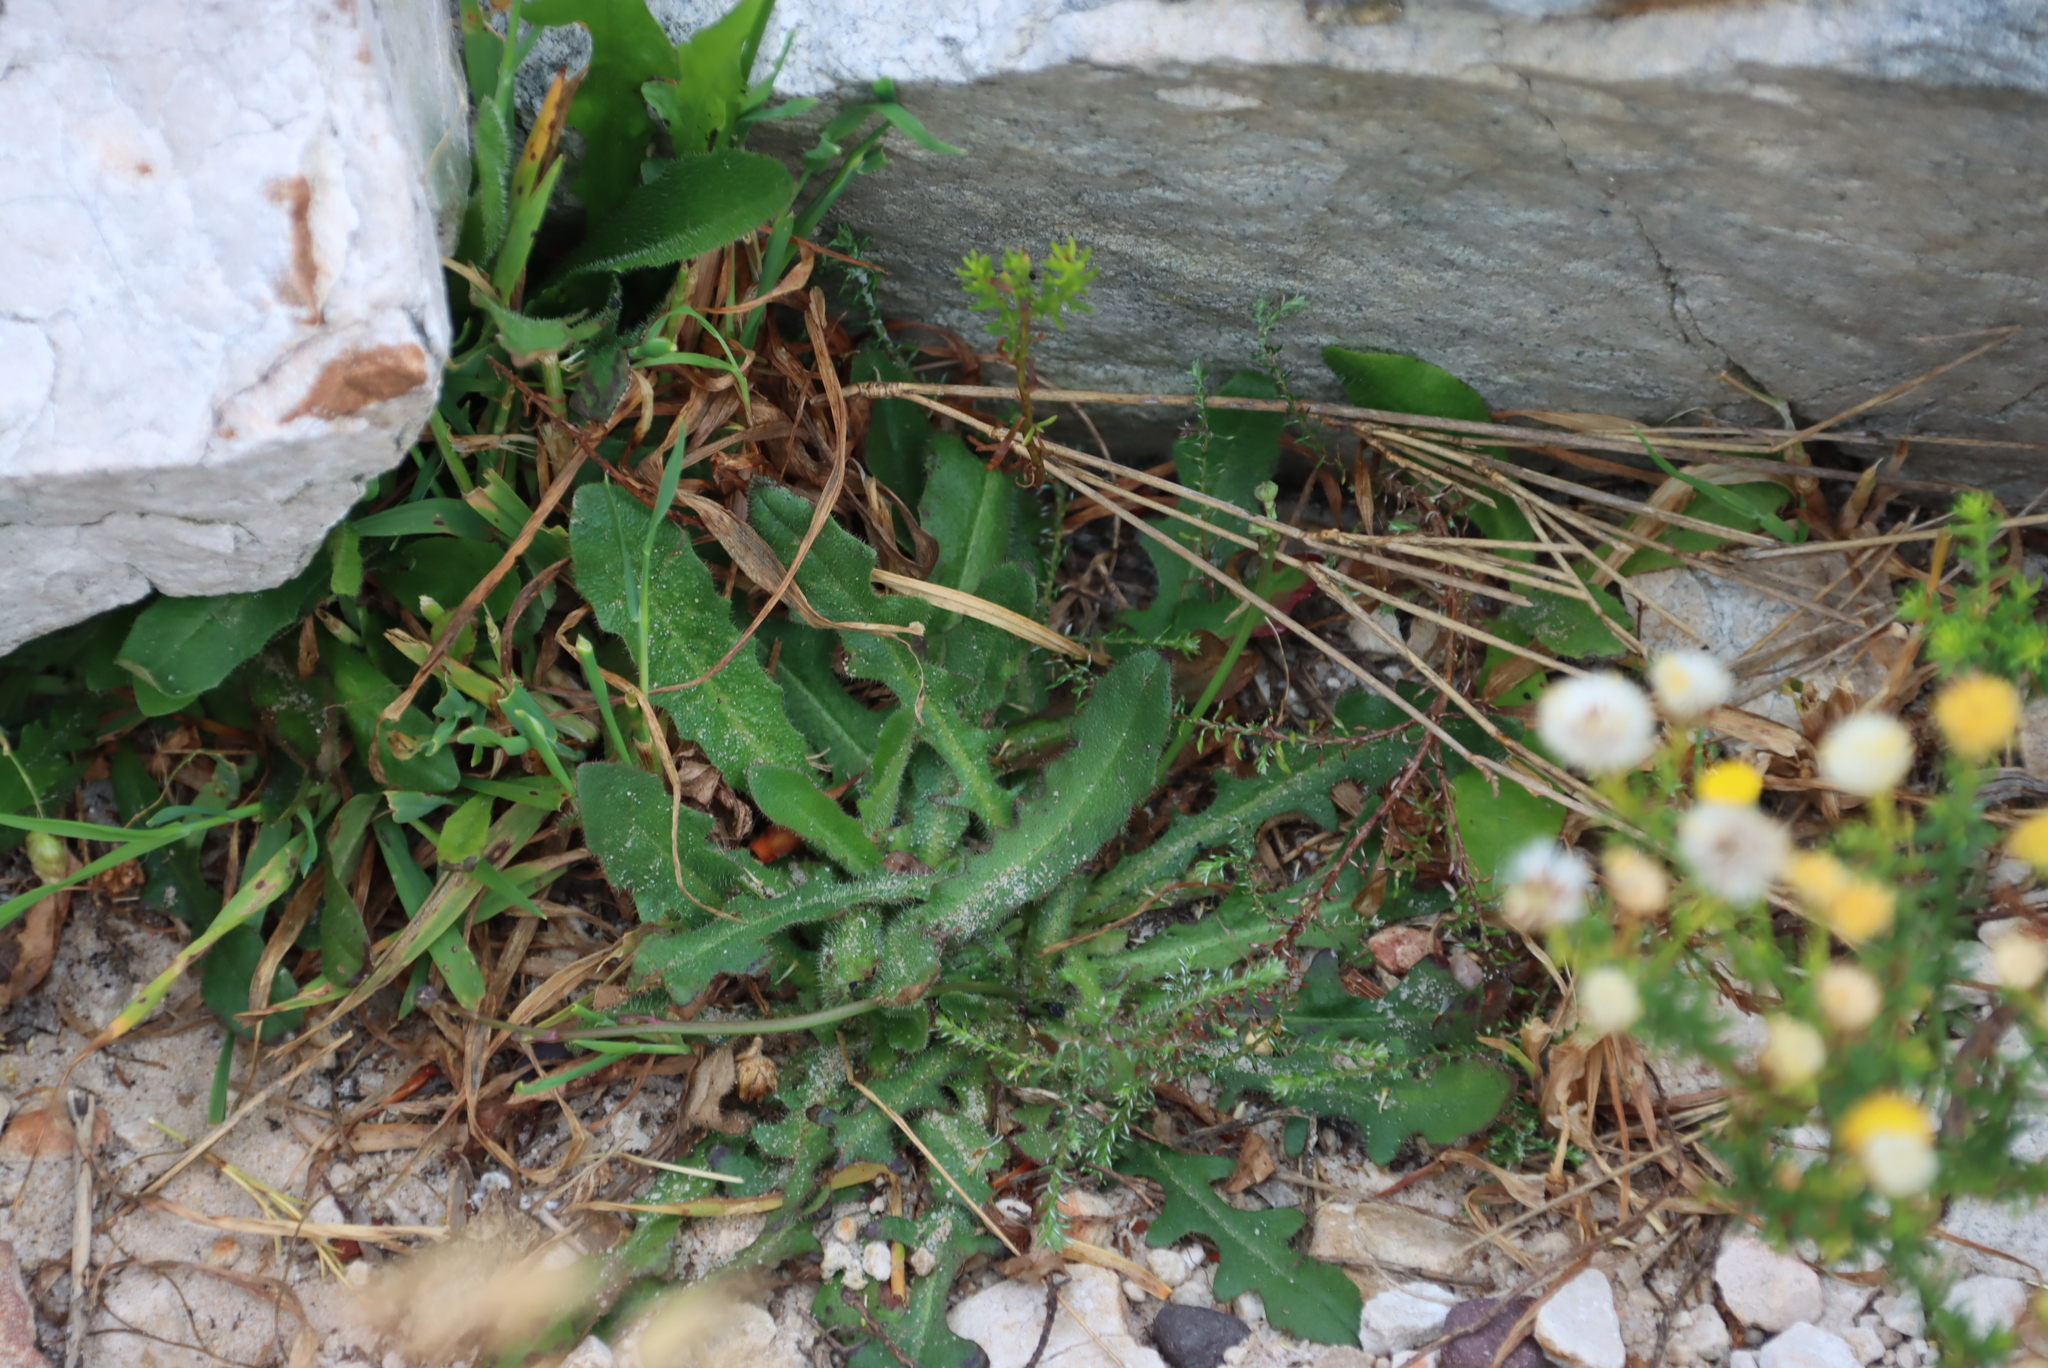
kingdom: Plantae
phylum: Tracheophyta
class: Magnoliopsida
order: Asterales
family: Asteraceae
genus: Hypochaeris
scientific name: Hypochaeris radicata
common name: Flatweed
